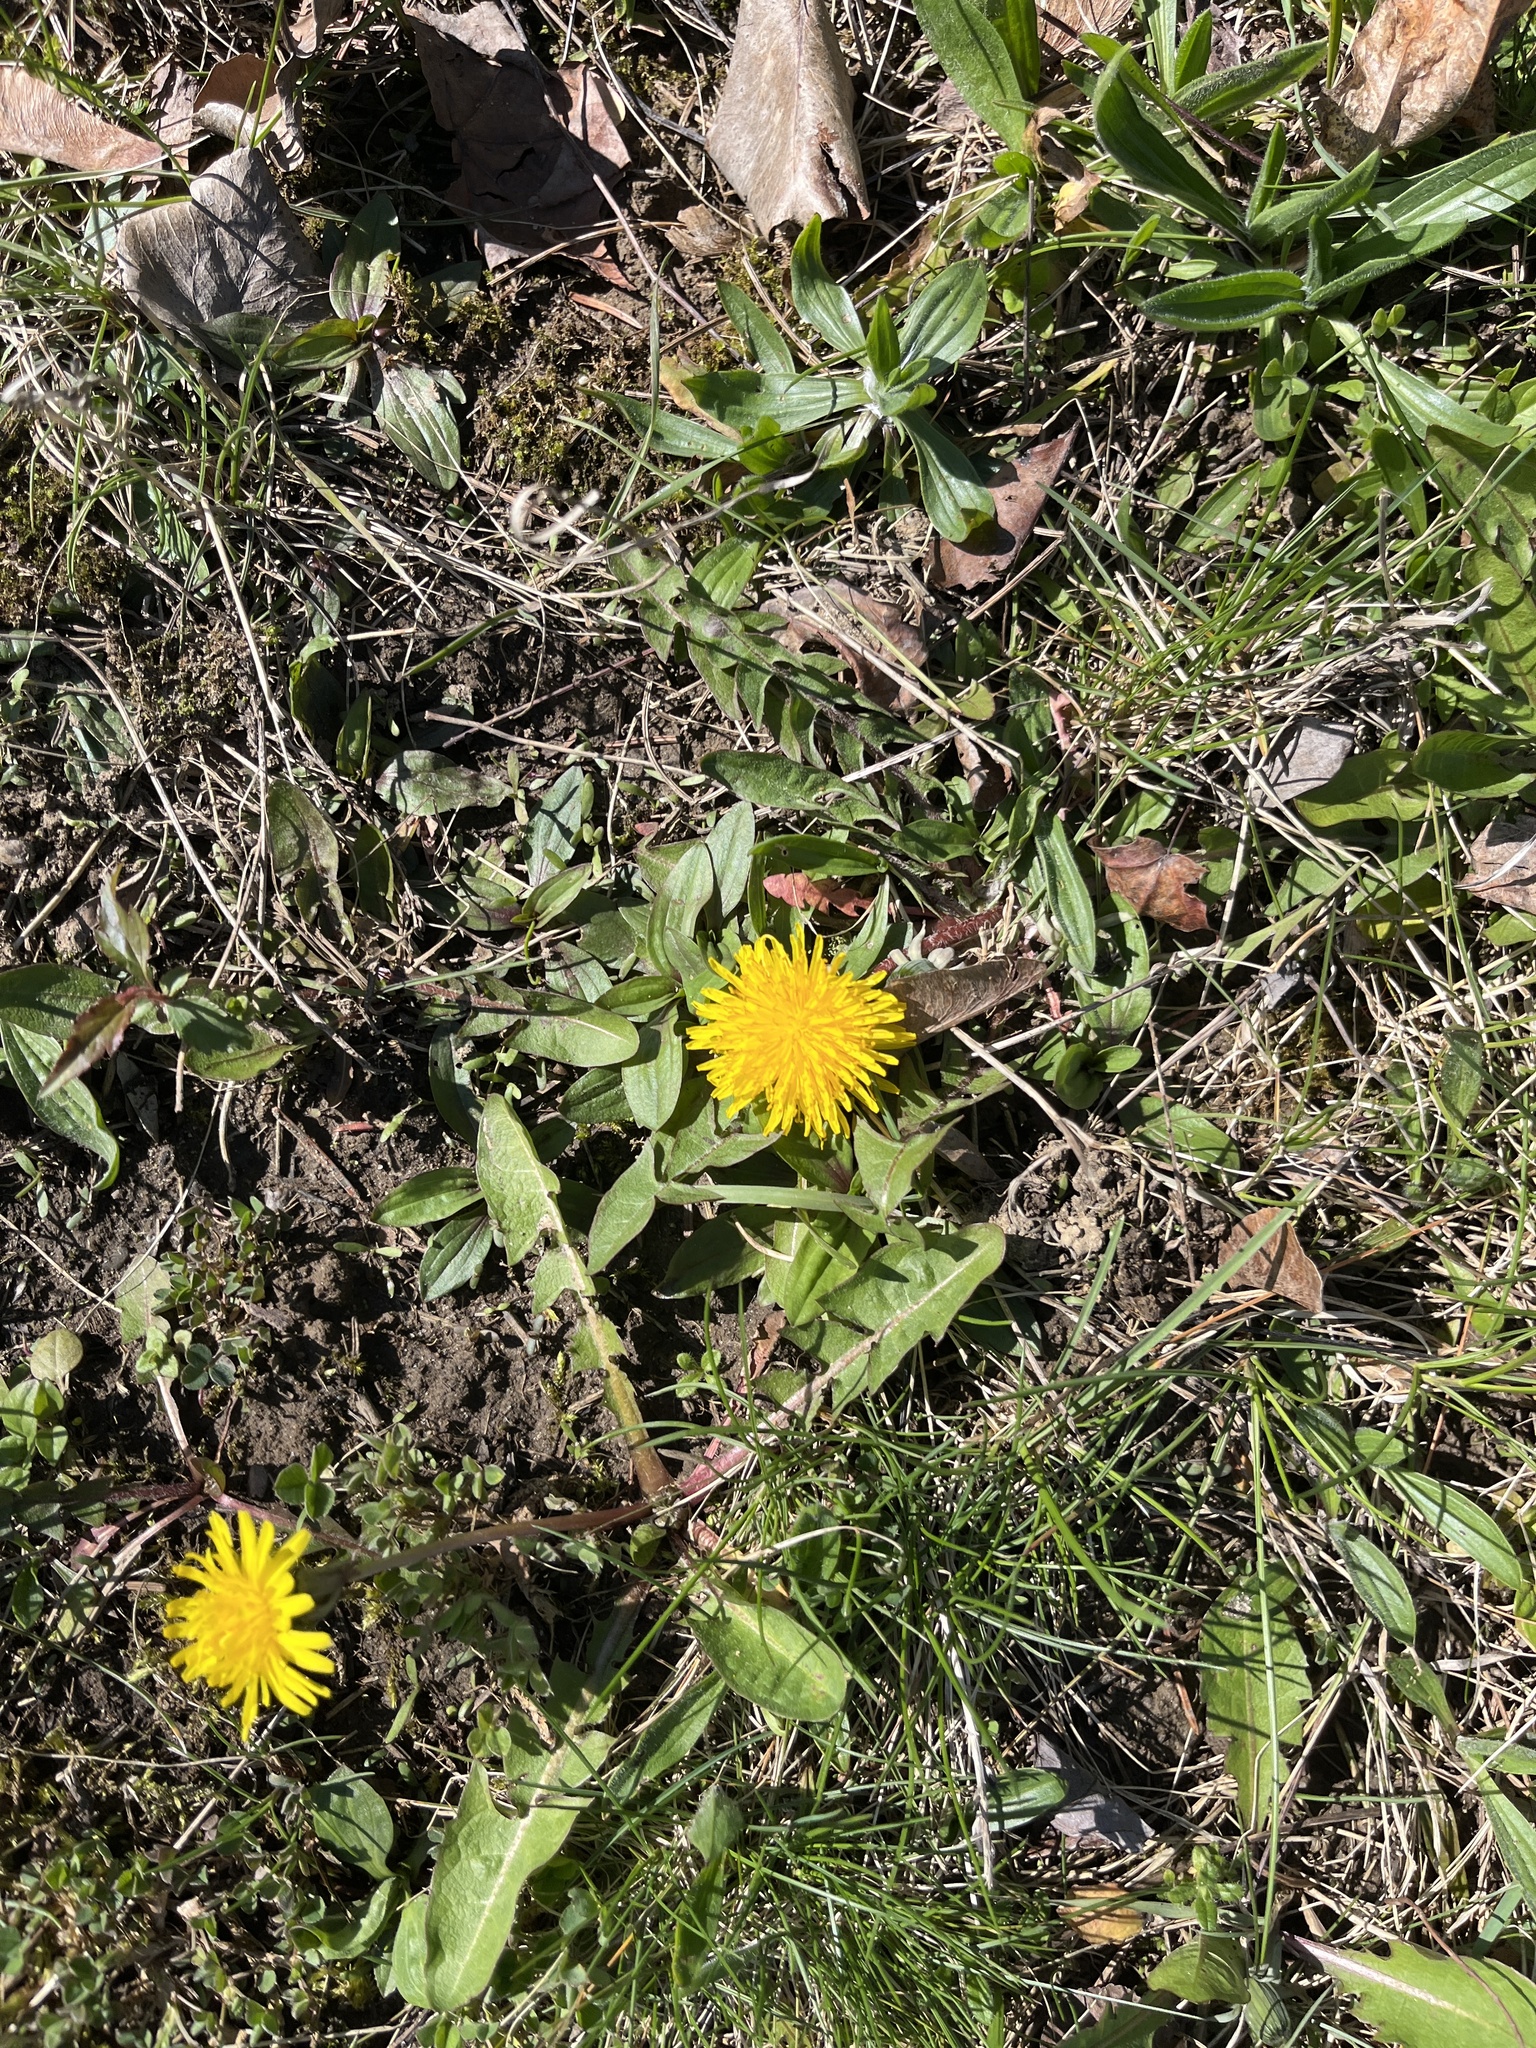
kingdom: Plantae
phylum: Tracheophyta
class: Magnoliopsida
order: Asterales
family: Asteraceae
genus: Taraxacum
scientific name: Taraxacum officinale
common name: Common dandelion
